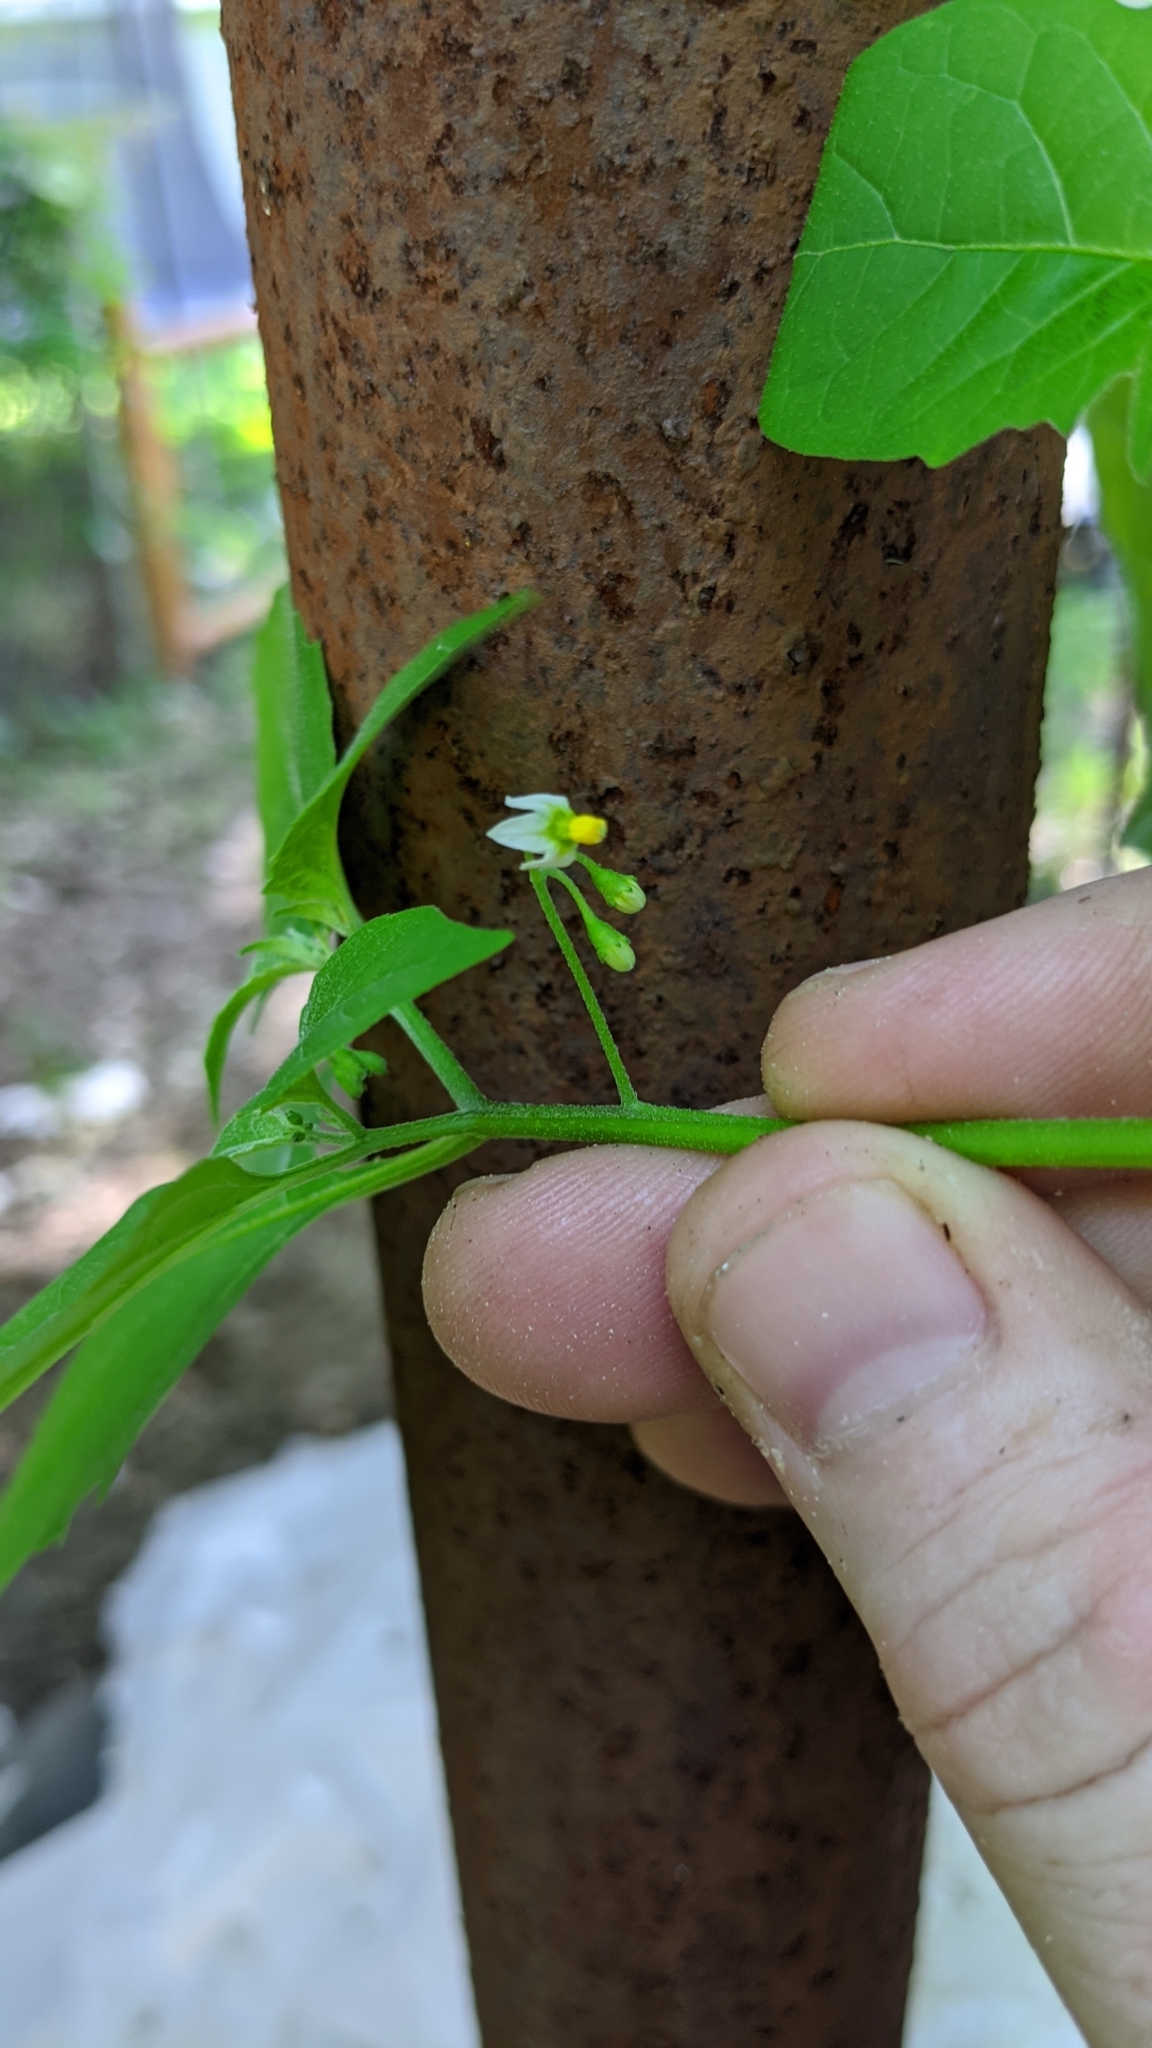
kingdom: Plantae
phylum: Tracheophyta
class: Magnoliopsida
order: Solanales
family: Solanaceae
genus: Solanum
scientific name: Solanum emulans
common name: Eastern black nightshade
